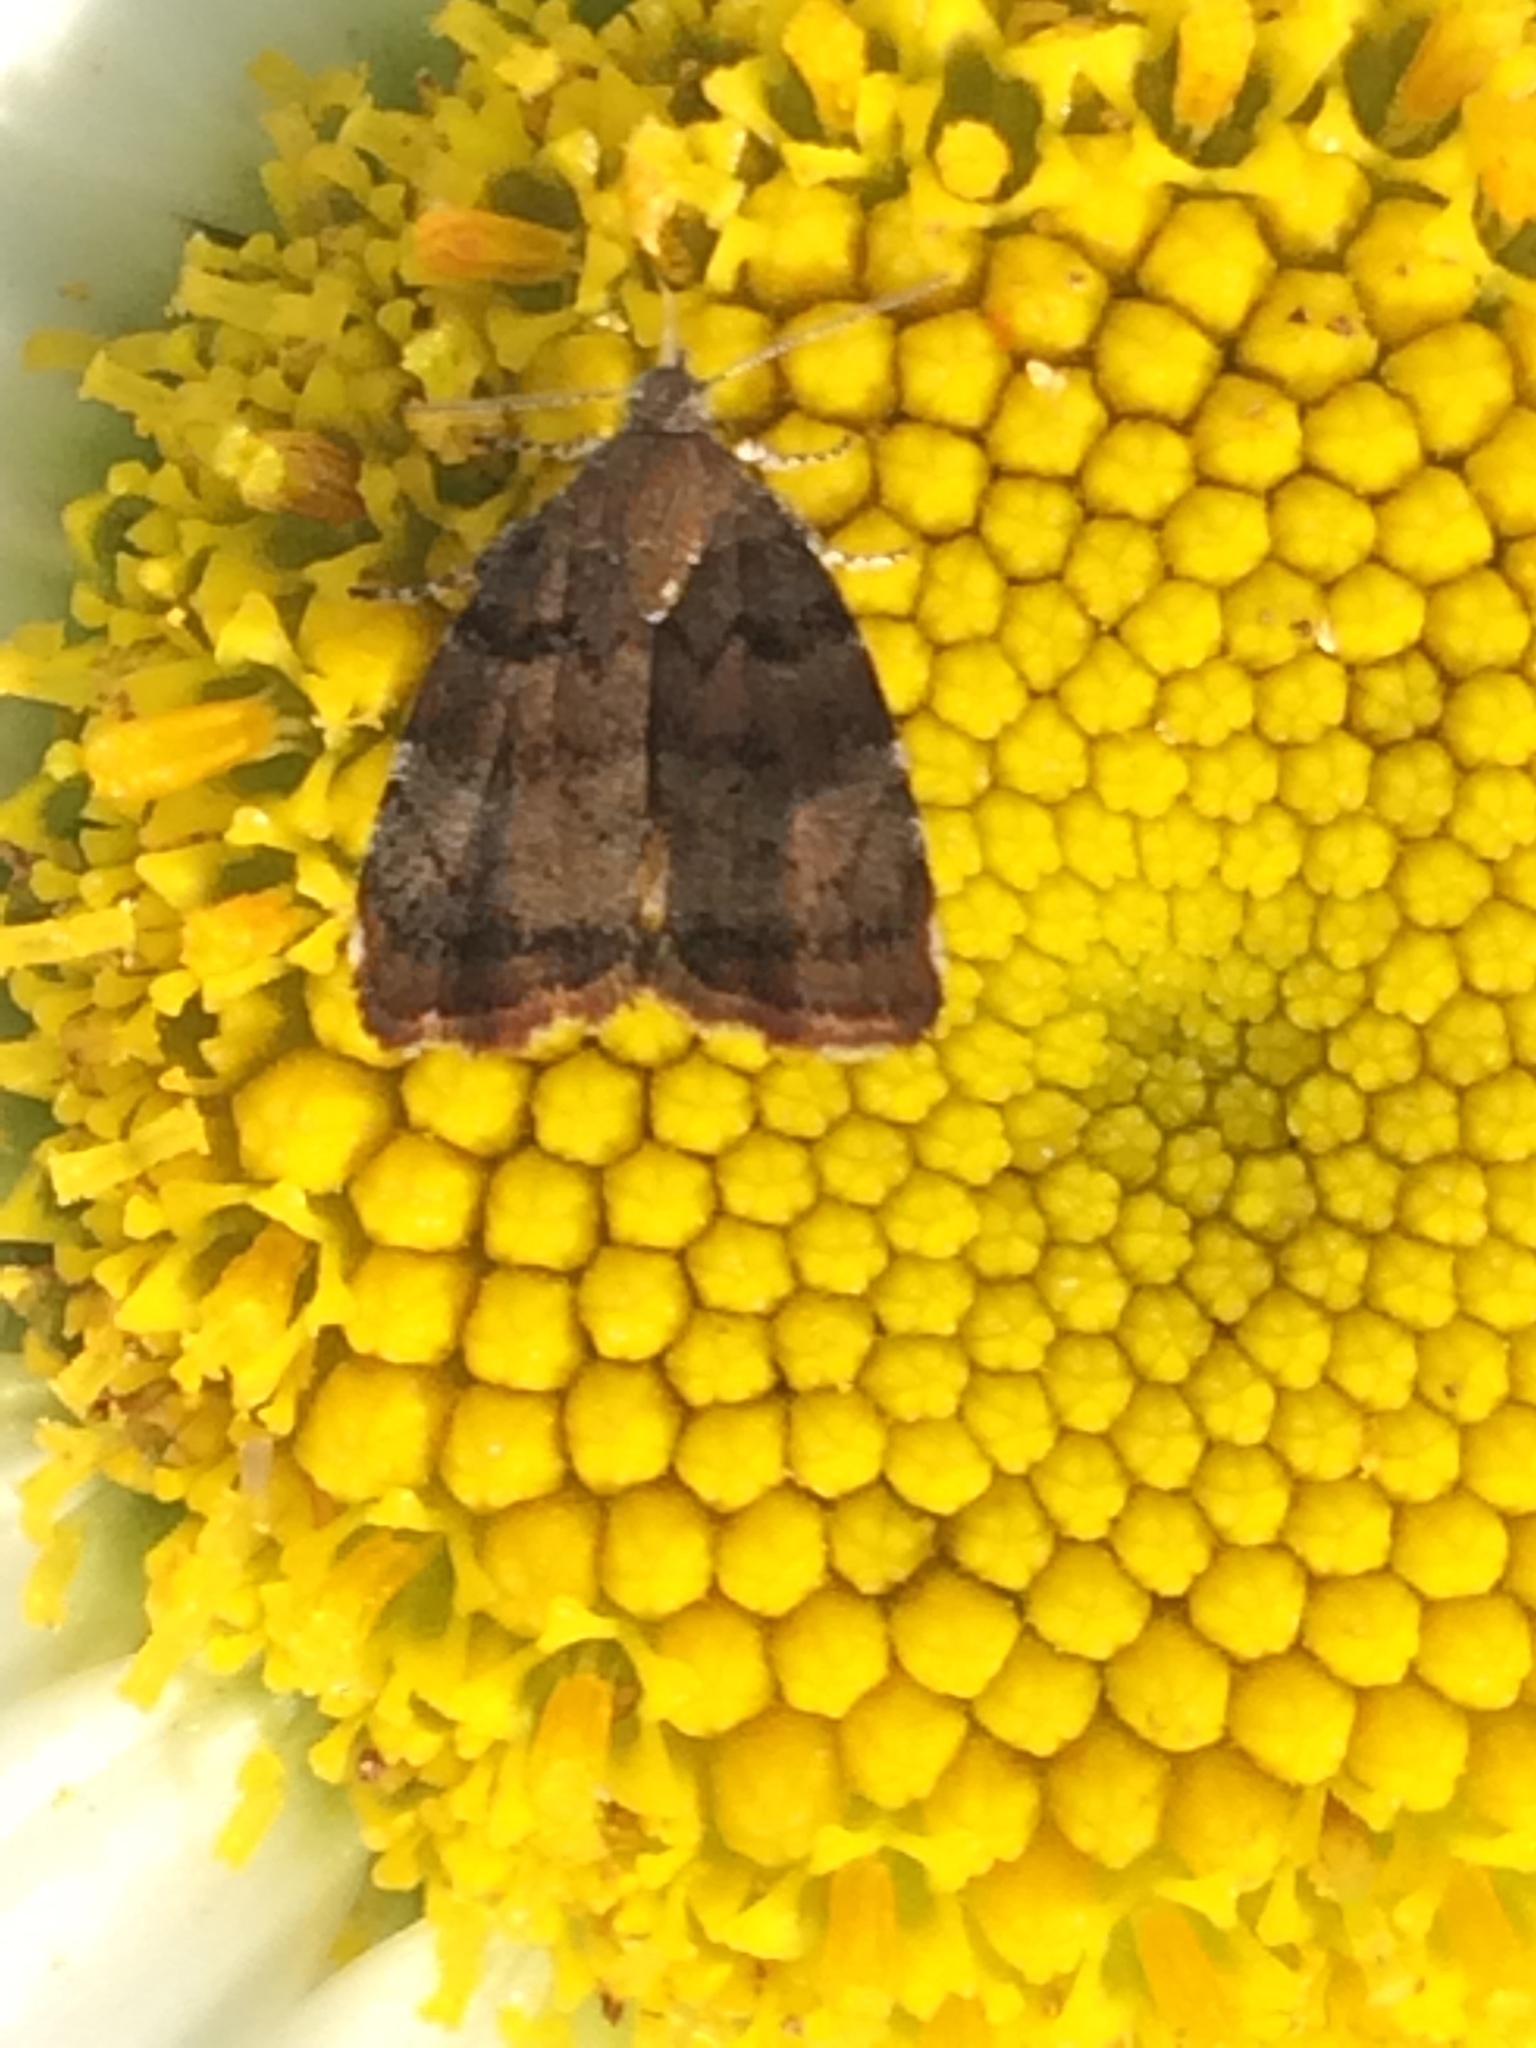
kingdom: Animalia
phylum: Arthropoda
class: Insecta
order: Lepidoptera
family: Choreutidae
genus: Choreutis
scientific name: Choreutis pariana
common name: Apple leaf skeletoniser
